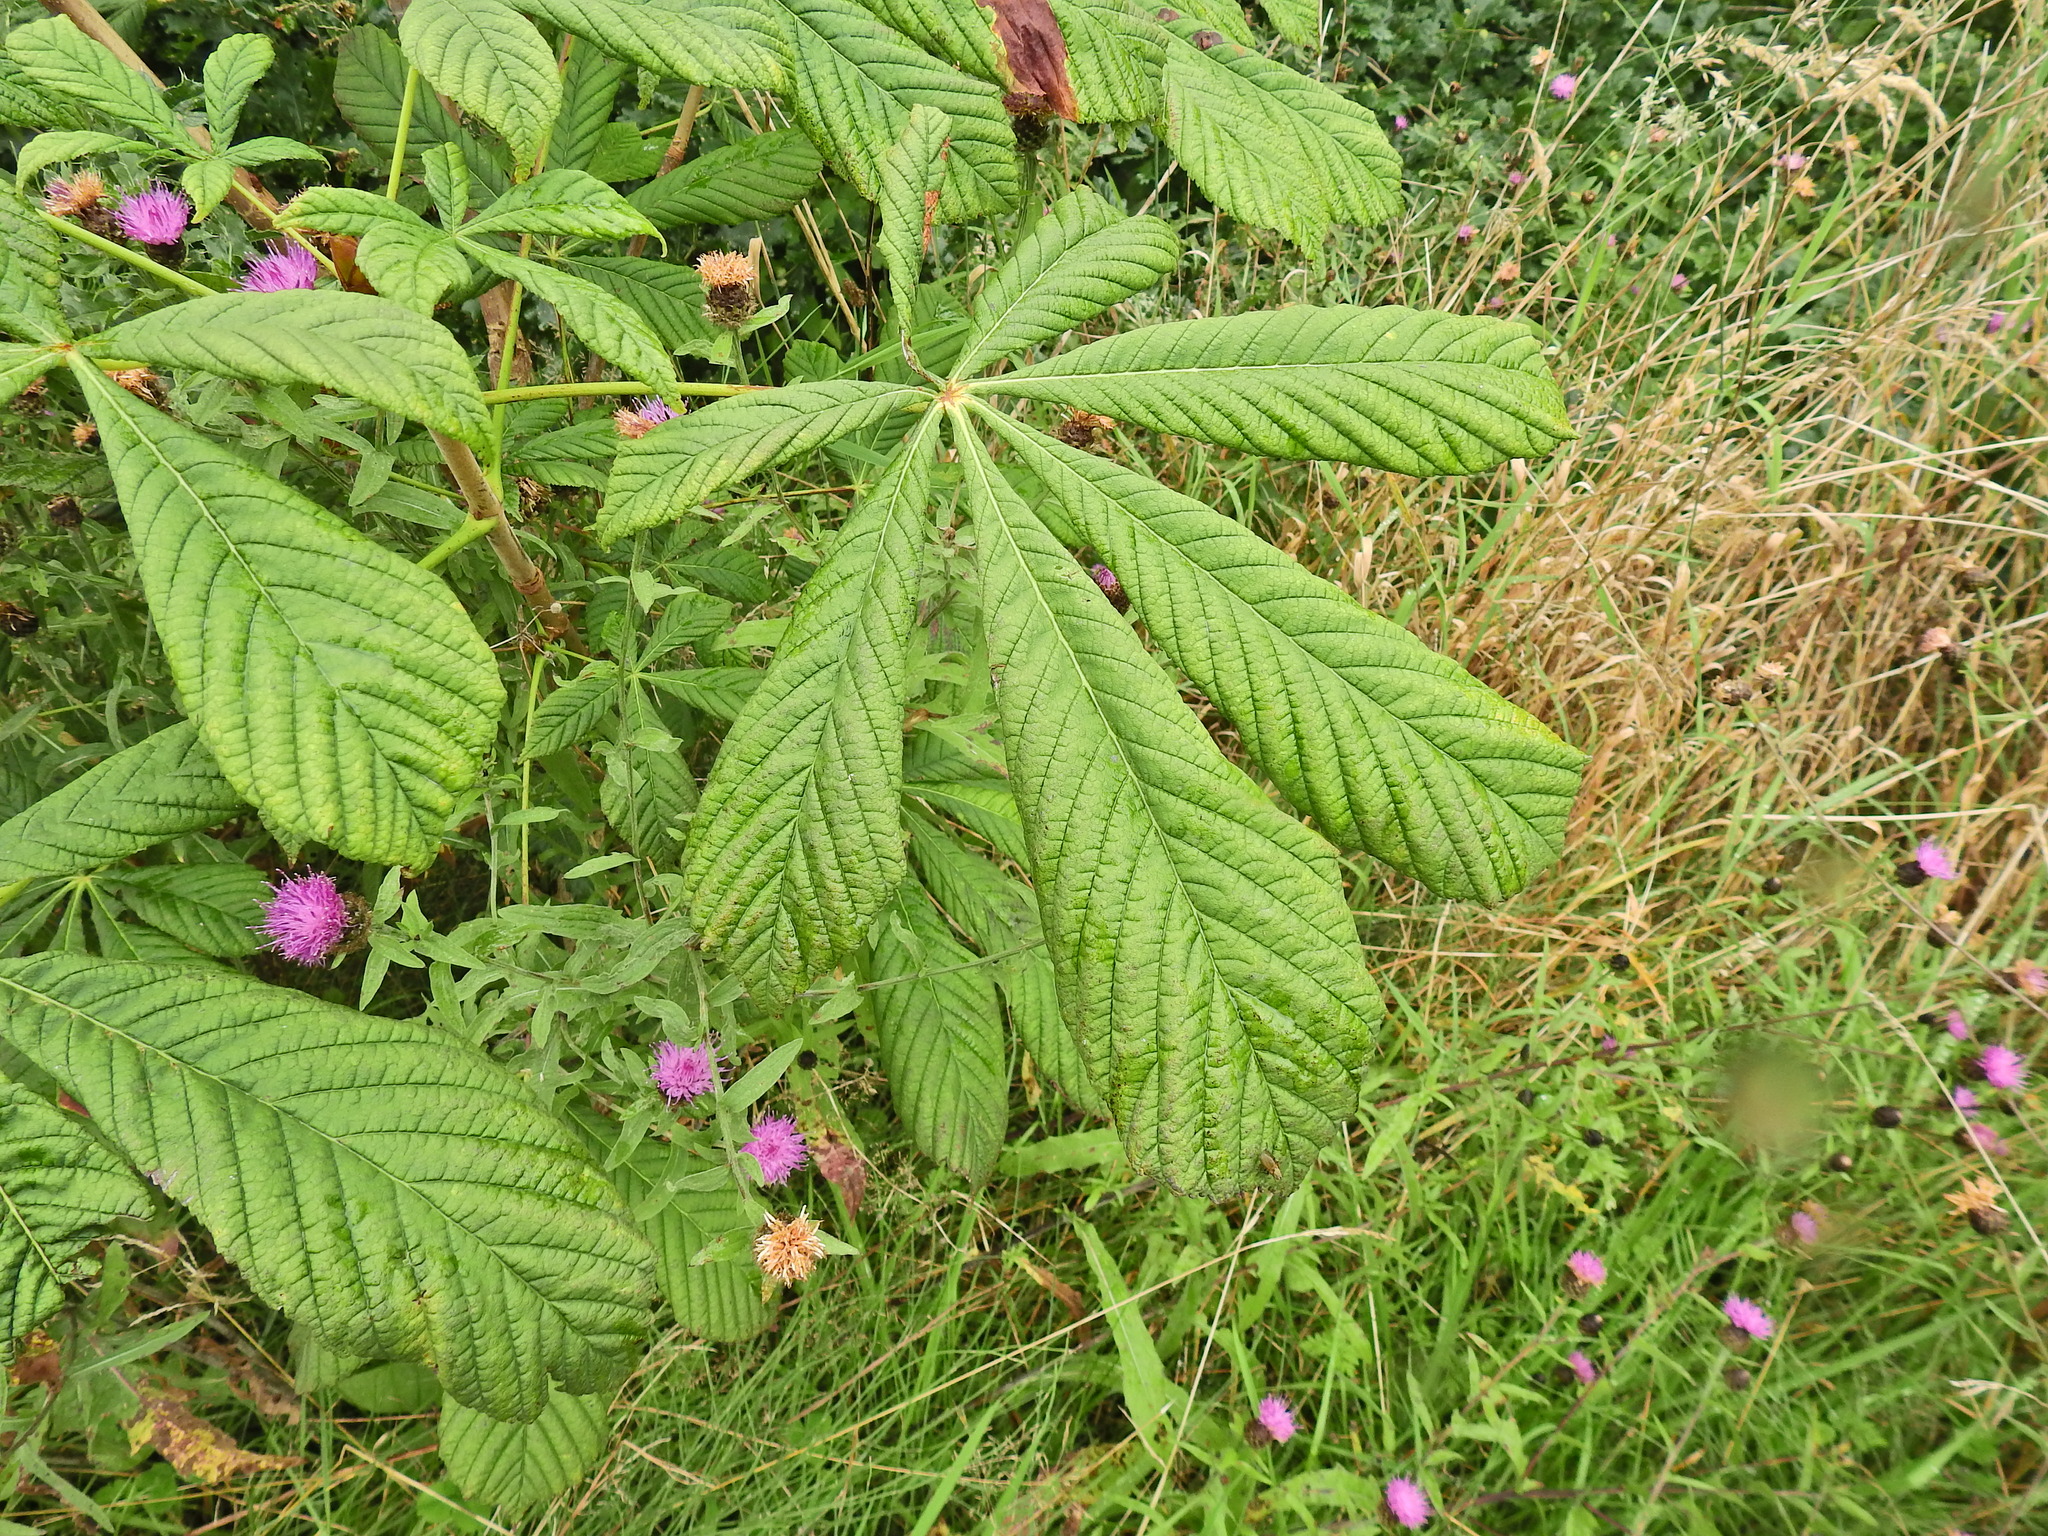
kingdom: Plantae
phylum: Tracheophyta
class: Magnoliopsida
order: Sapindales
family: Sapindaceae
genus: Aesculus
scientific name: Aesculus hippocastanum
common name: Horse-chestnut
